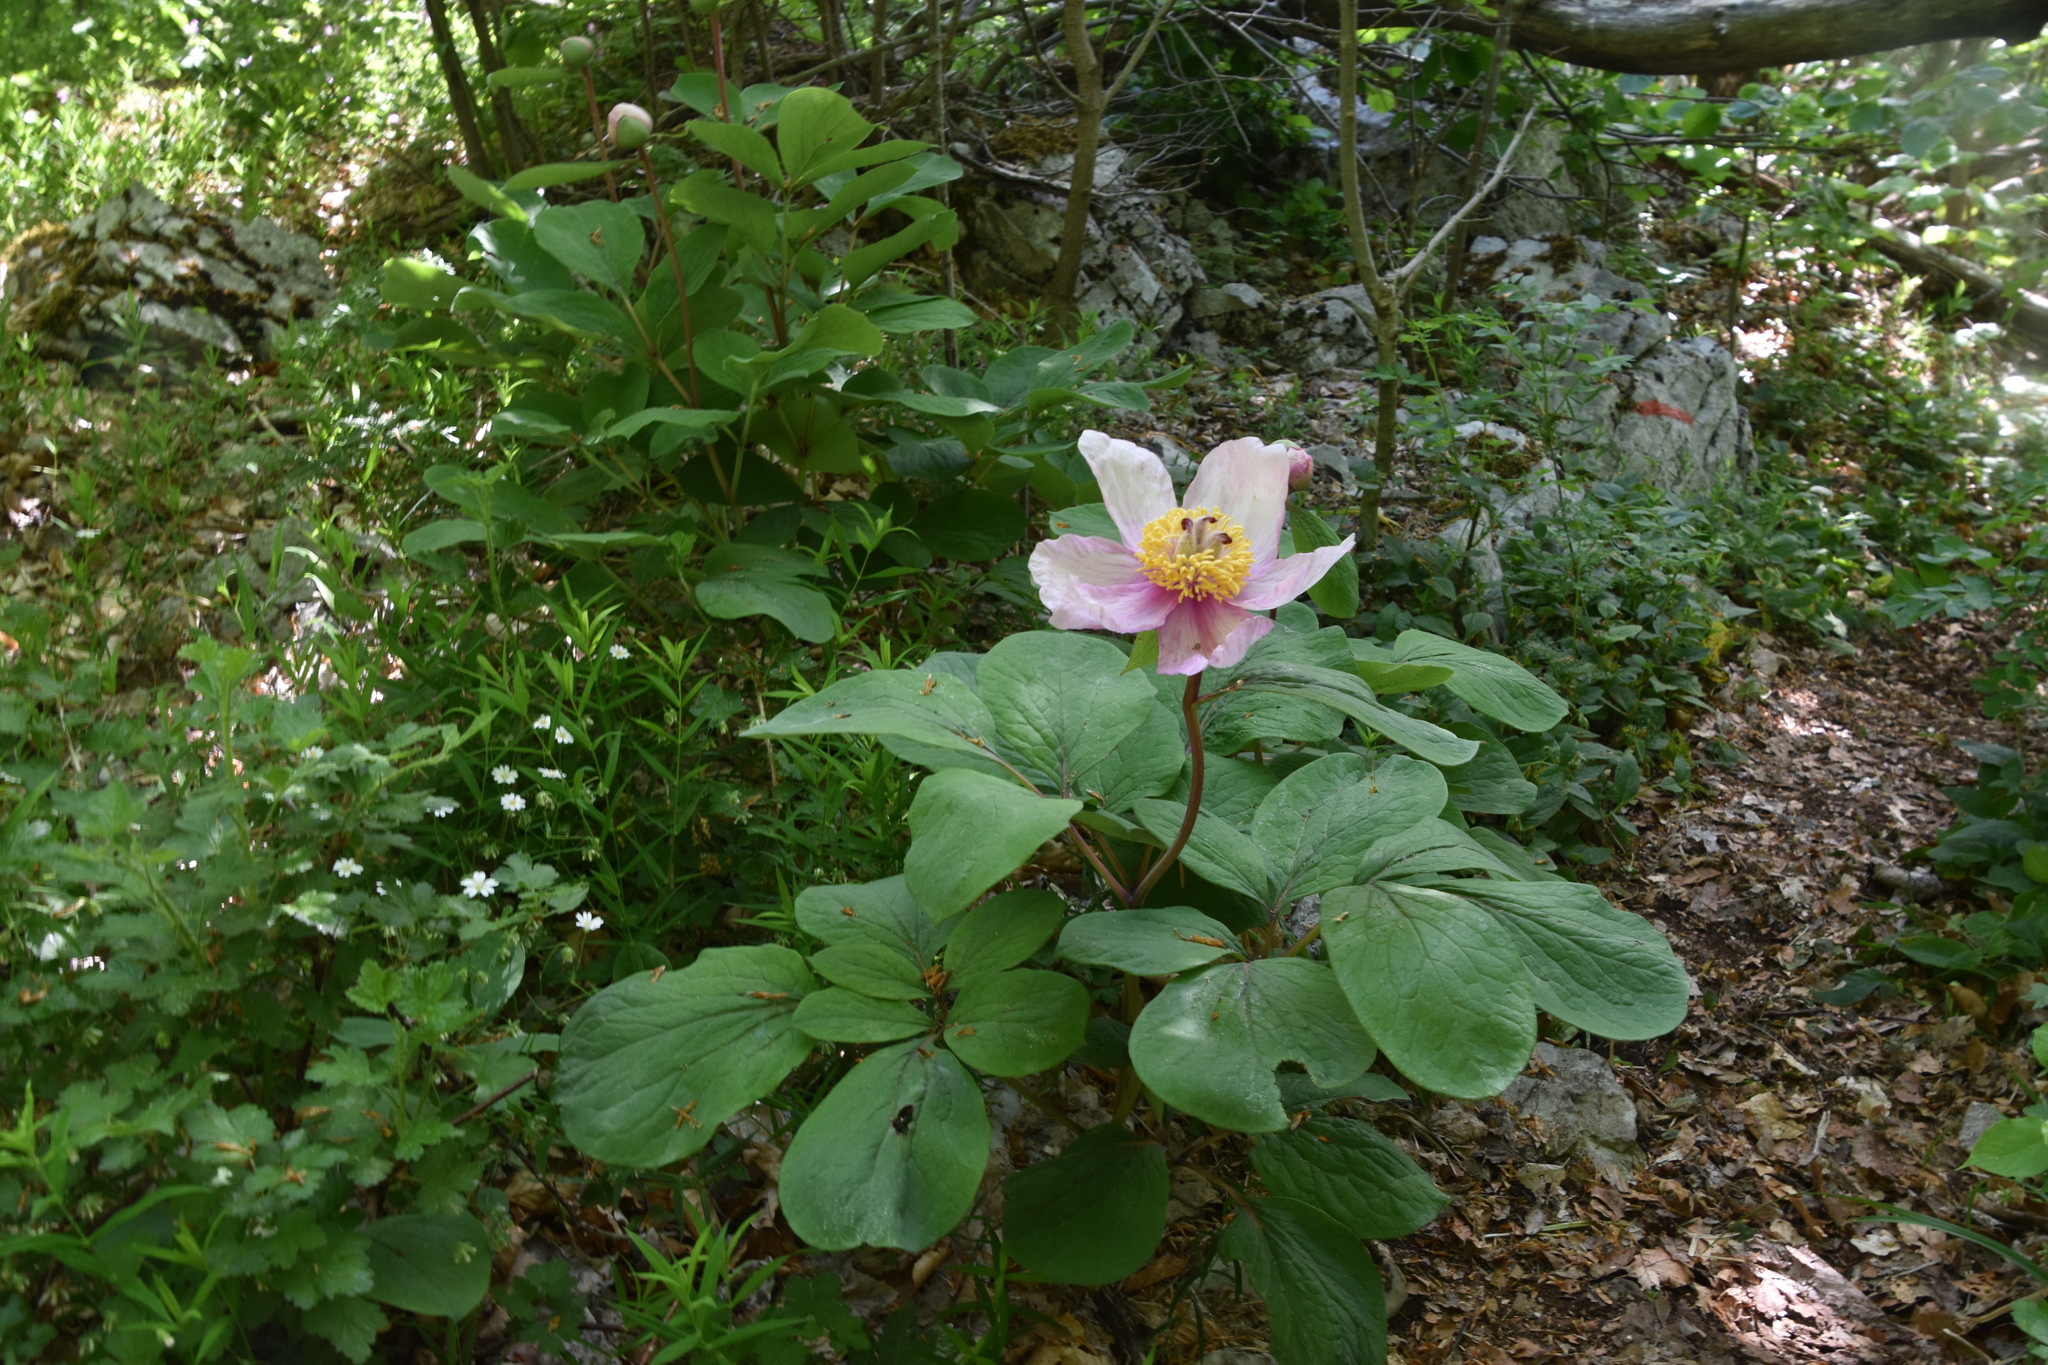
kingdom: Plantae
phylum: Tracheophyta
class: Magnoliopsida
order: Saxifragales
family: Paeoniaceae
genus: Paeonia
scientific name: Paeonia mascula
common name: Peony
